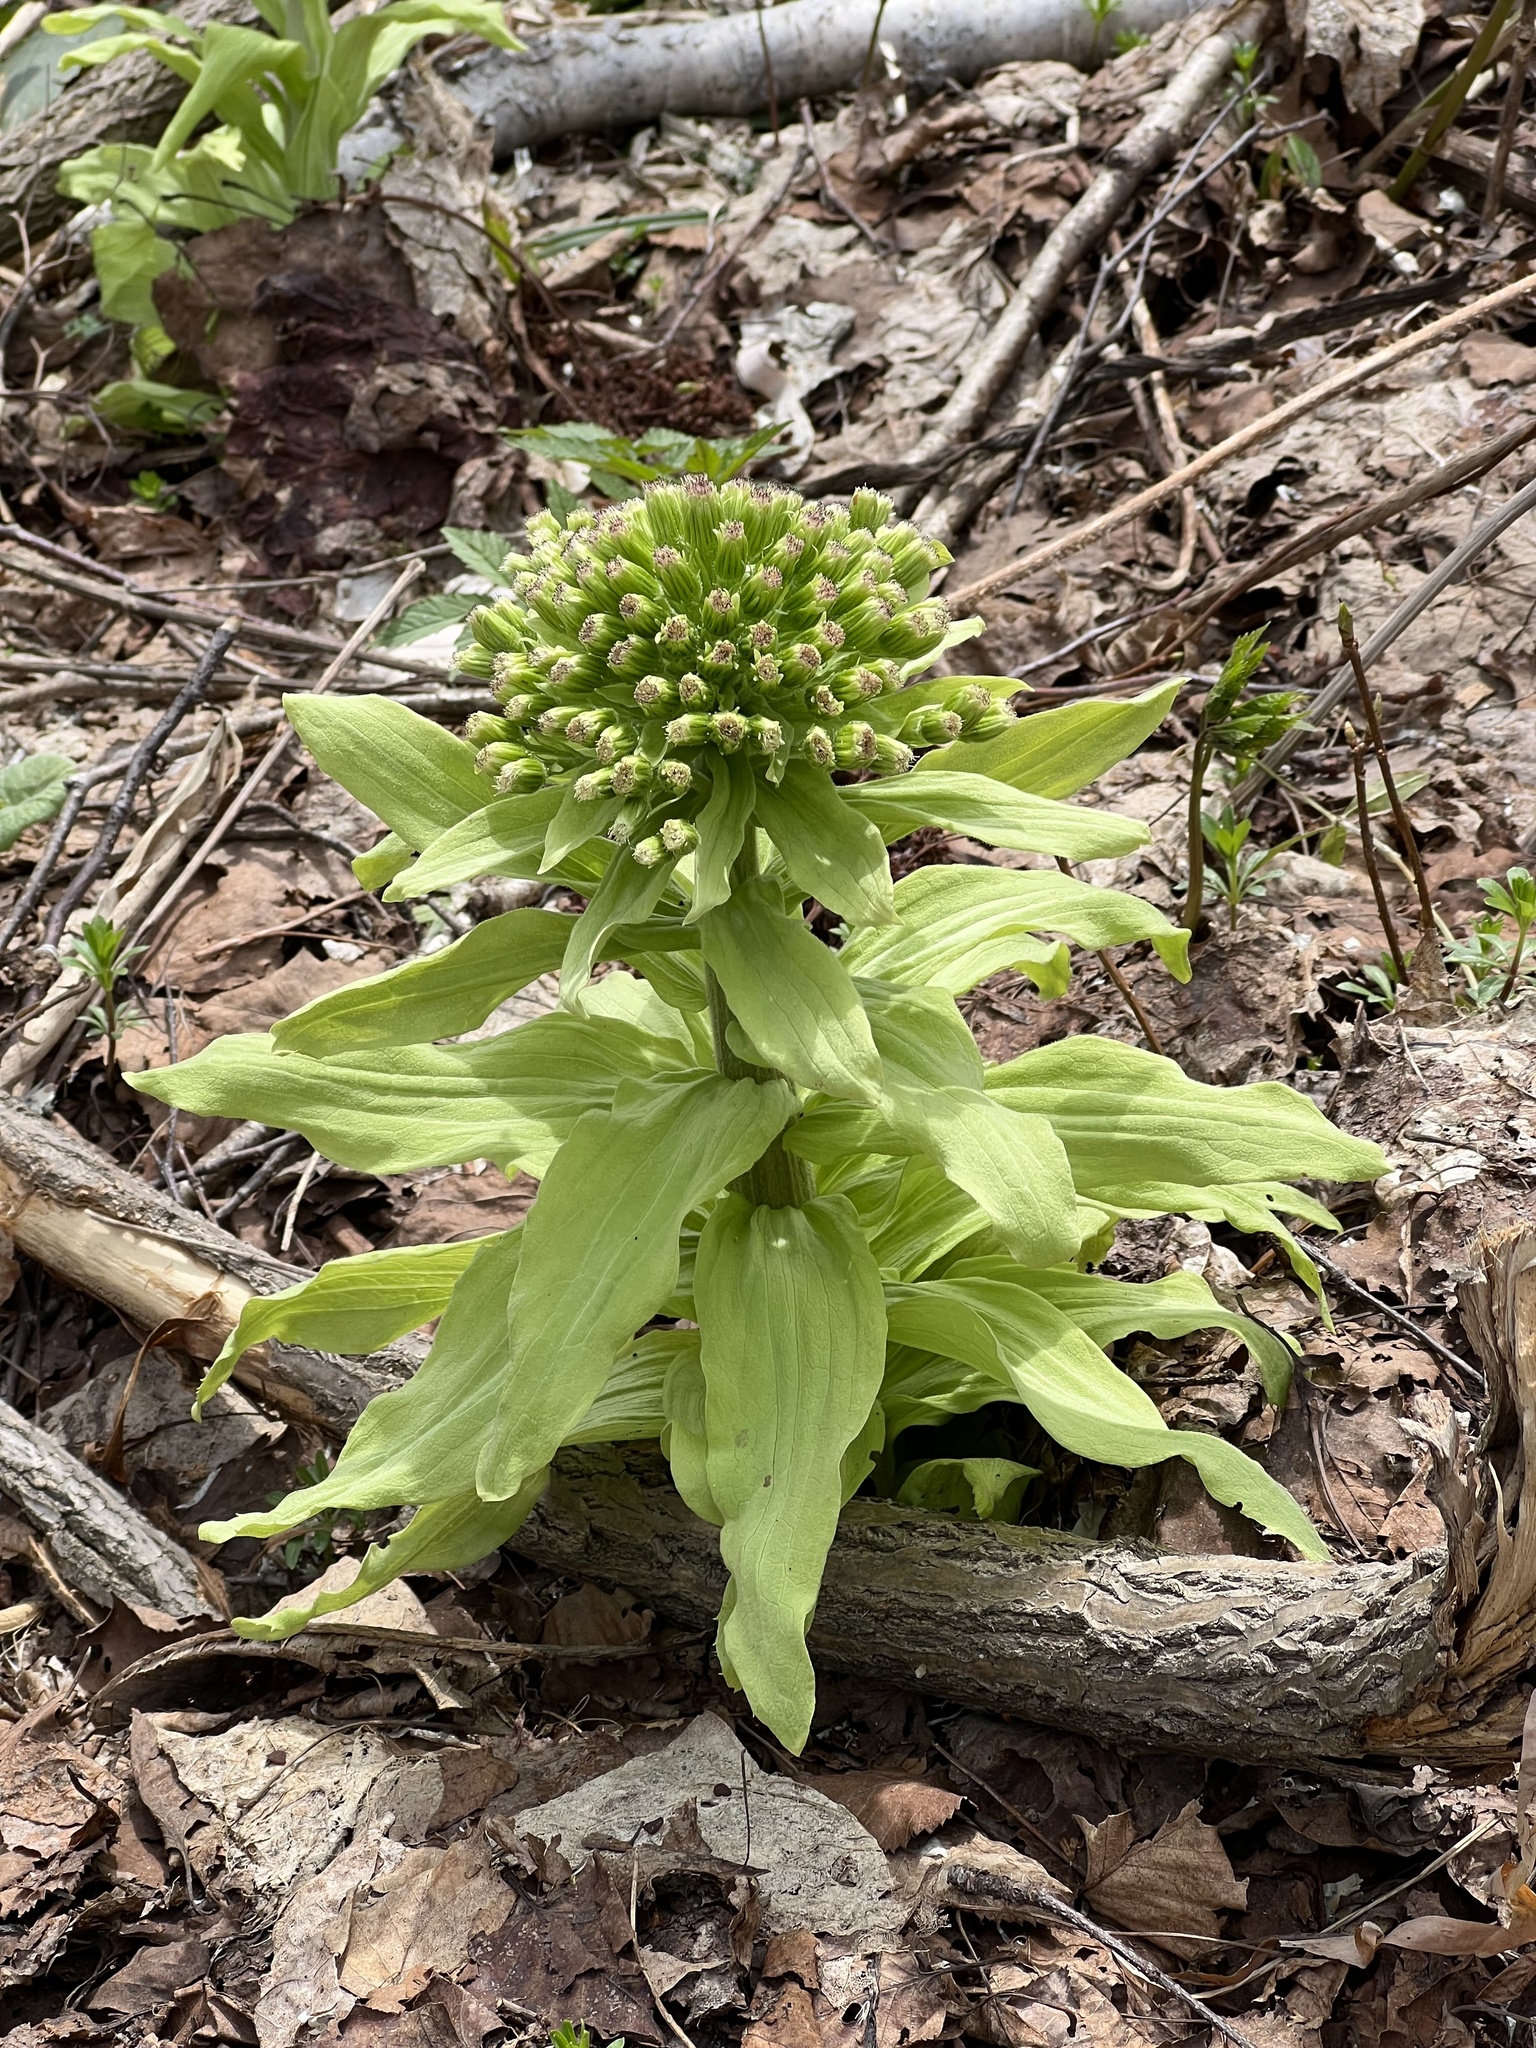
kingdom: Plantae
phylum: Tracheophyta
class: Magnoliopsida
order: Asterales
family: Asteraceae
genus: Petasites
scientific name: Petasites japonicus
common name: Giant butterbur
